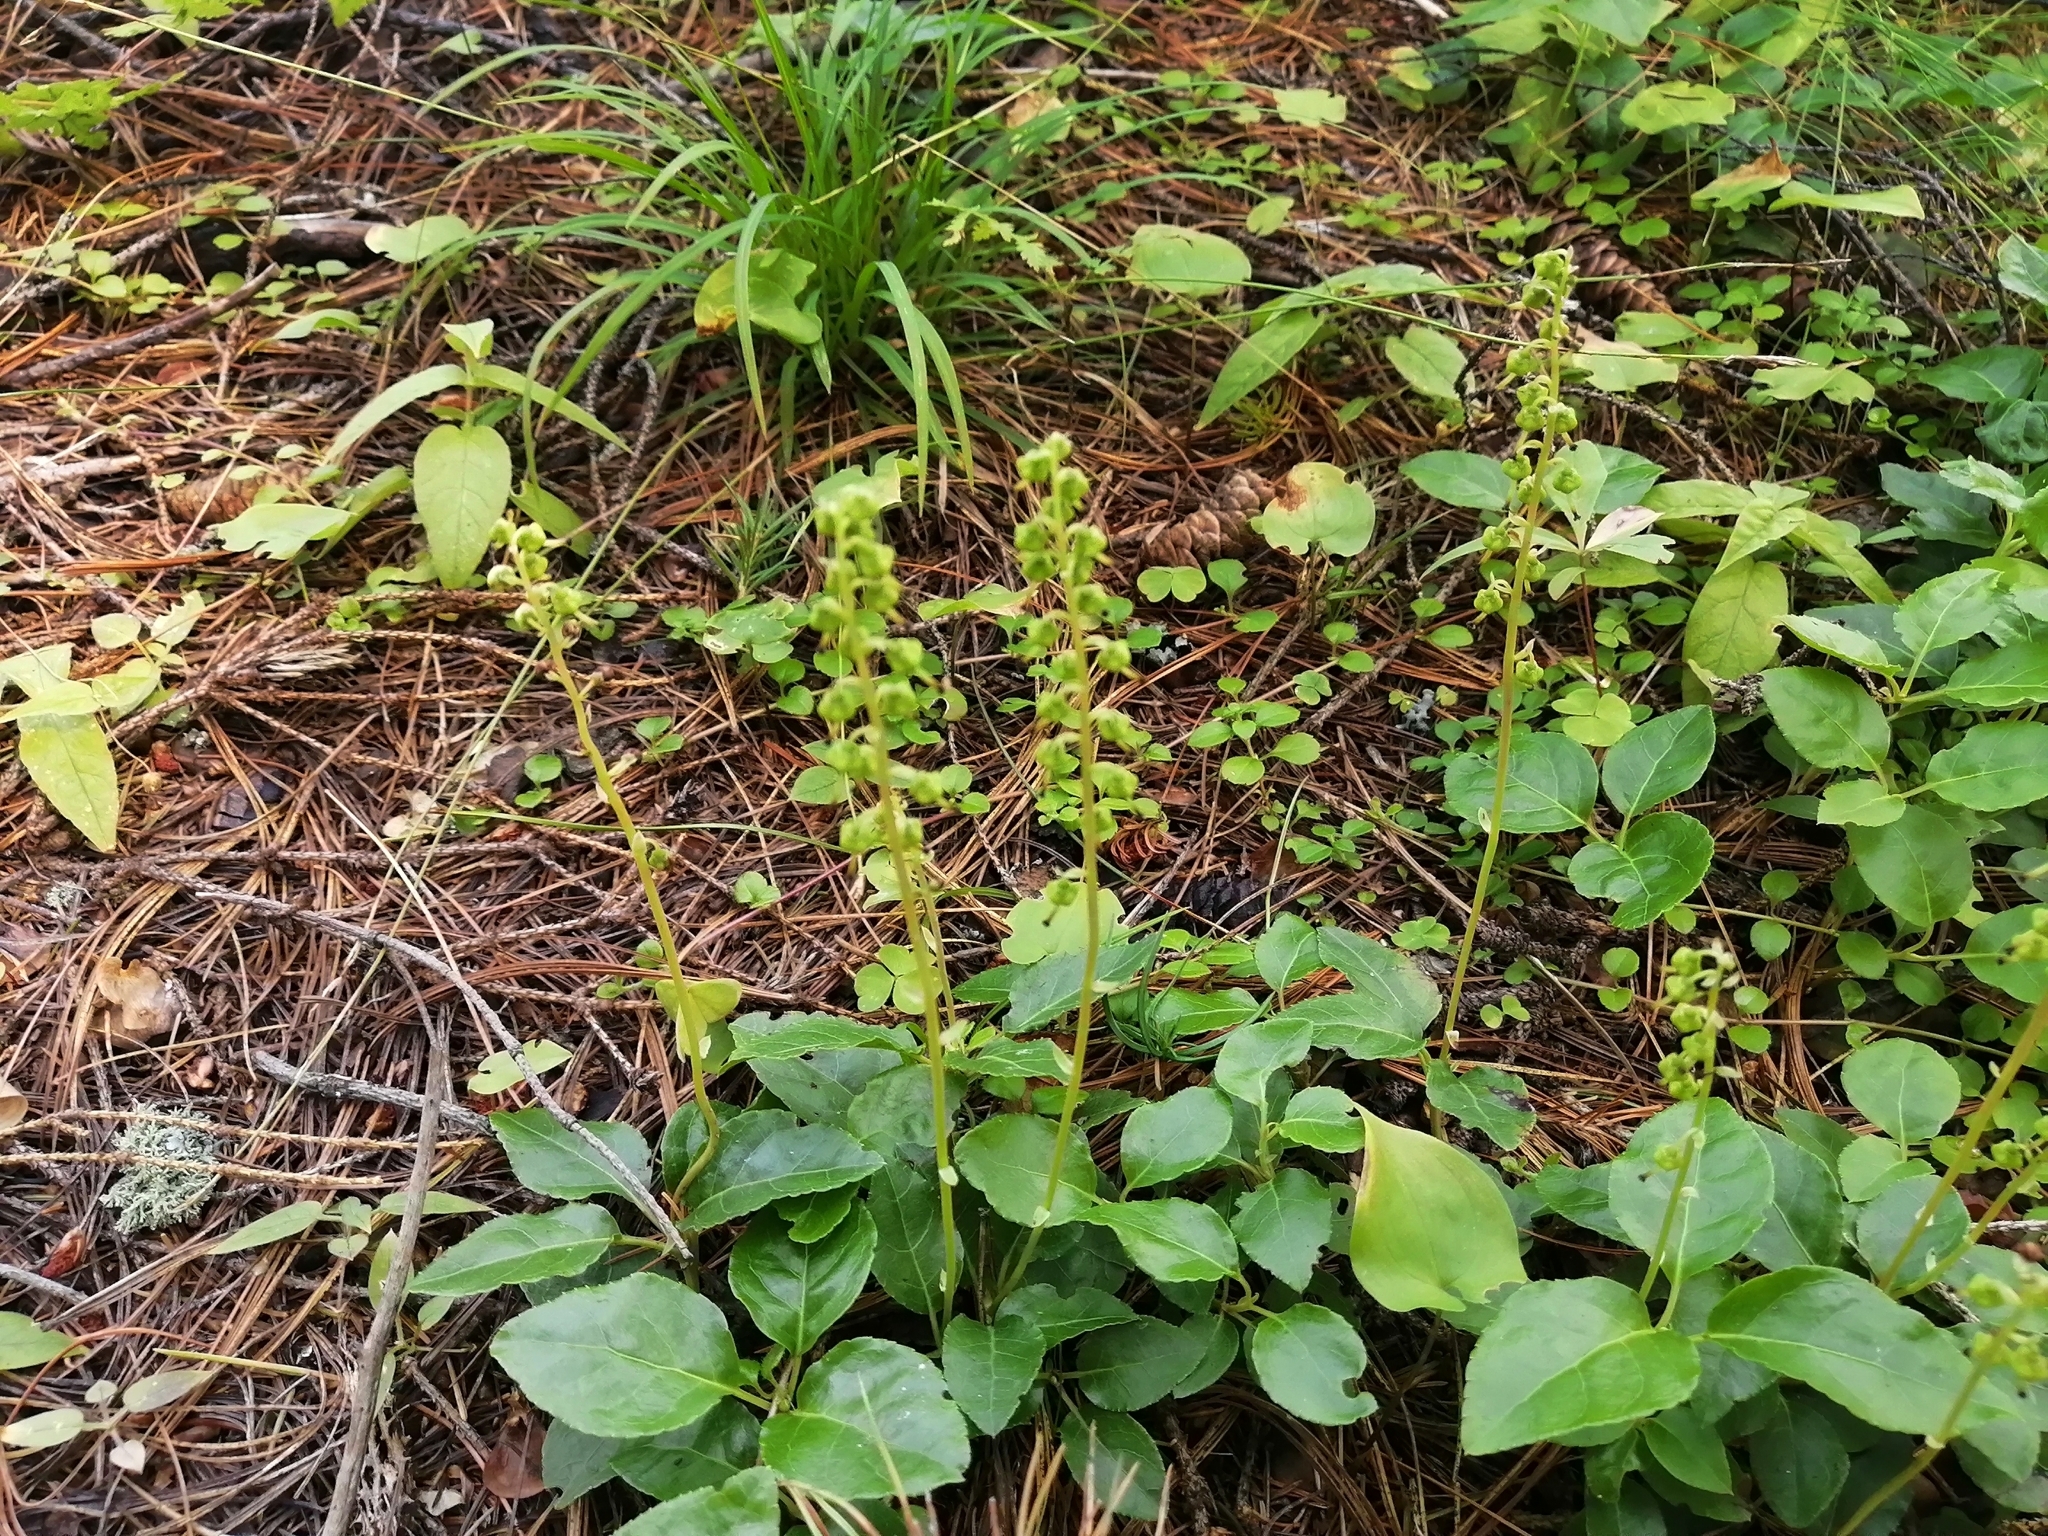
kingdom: Plantae
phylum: Tracheophyta
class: Magnoliopsida
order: Ericales
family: Ericaceae
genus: Orthilia
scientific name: Orthilia secunda
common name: One-sided orthilia
